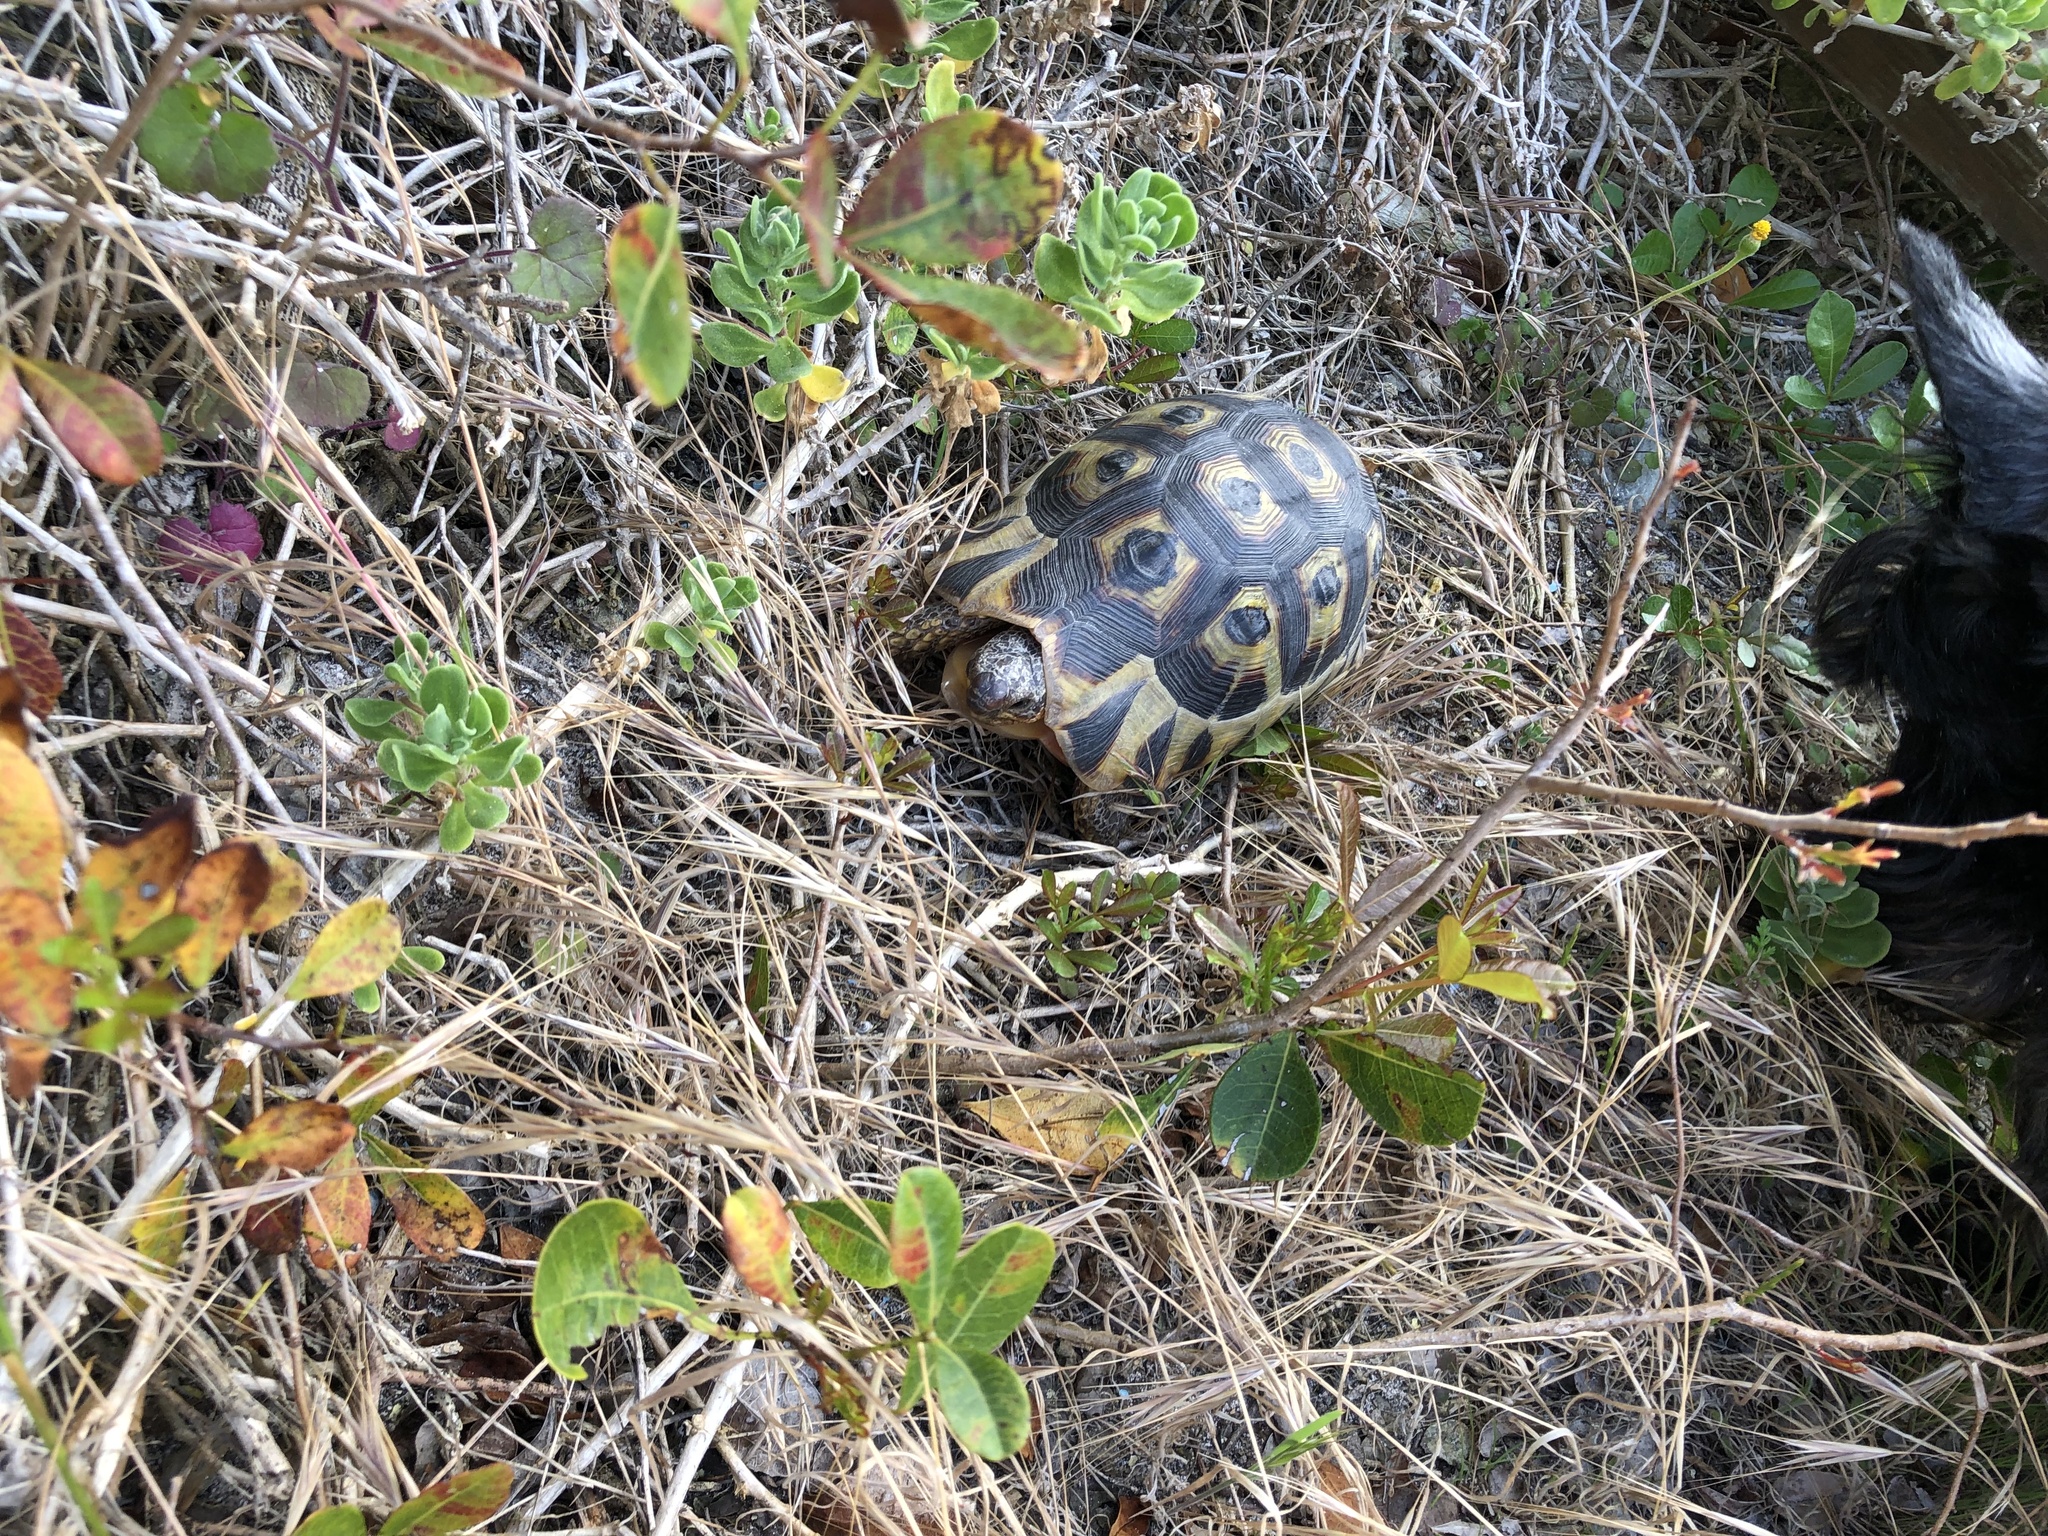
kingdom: Animalia
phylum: Chordata
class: Testudines
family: Testudinidae
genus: Chersina
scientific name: Chersina angulata
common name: South african bowsprit tortoise
